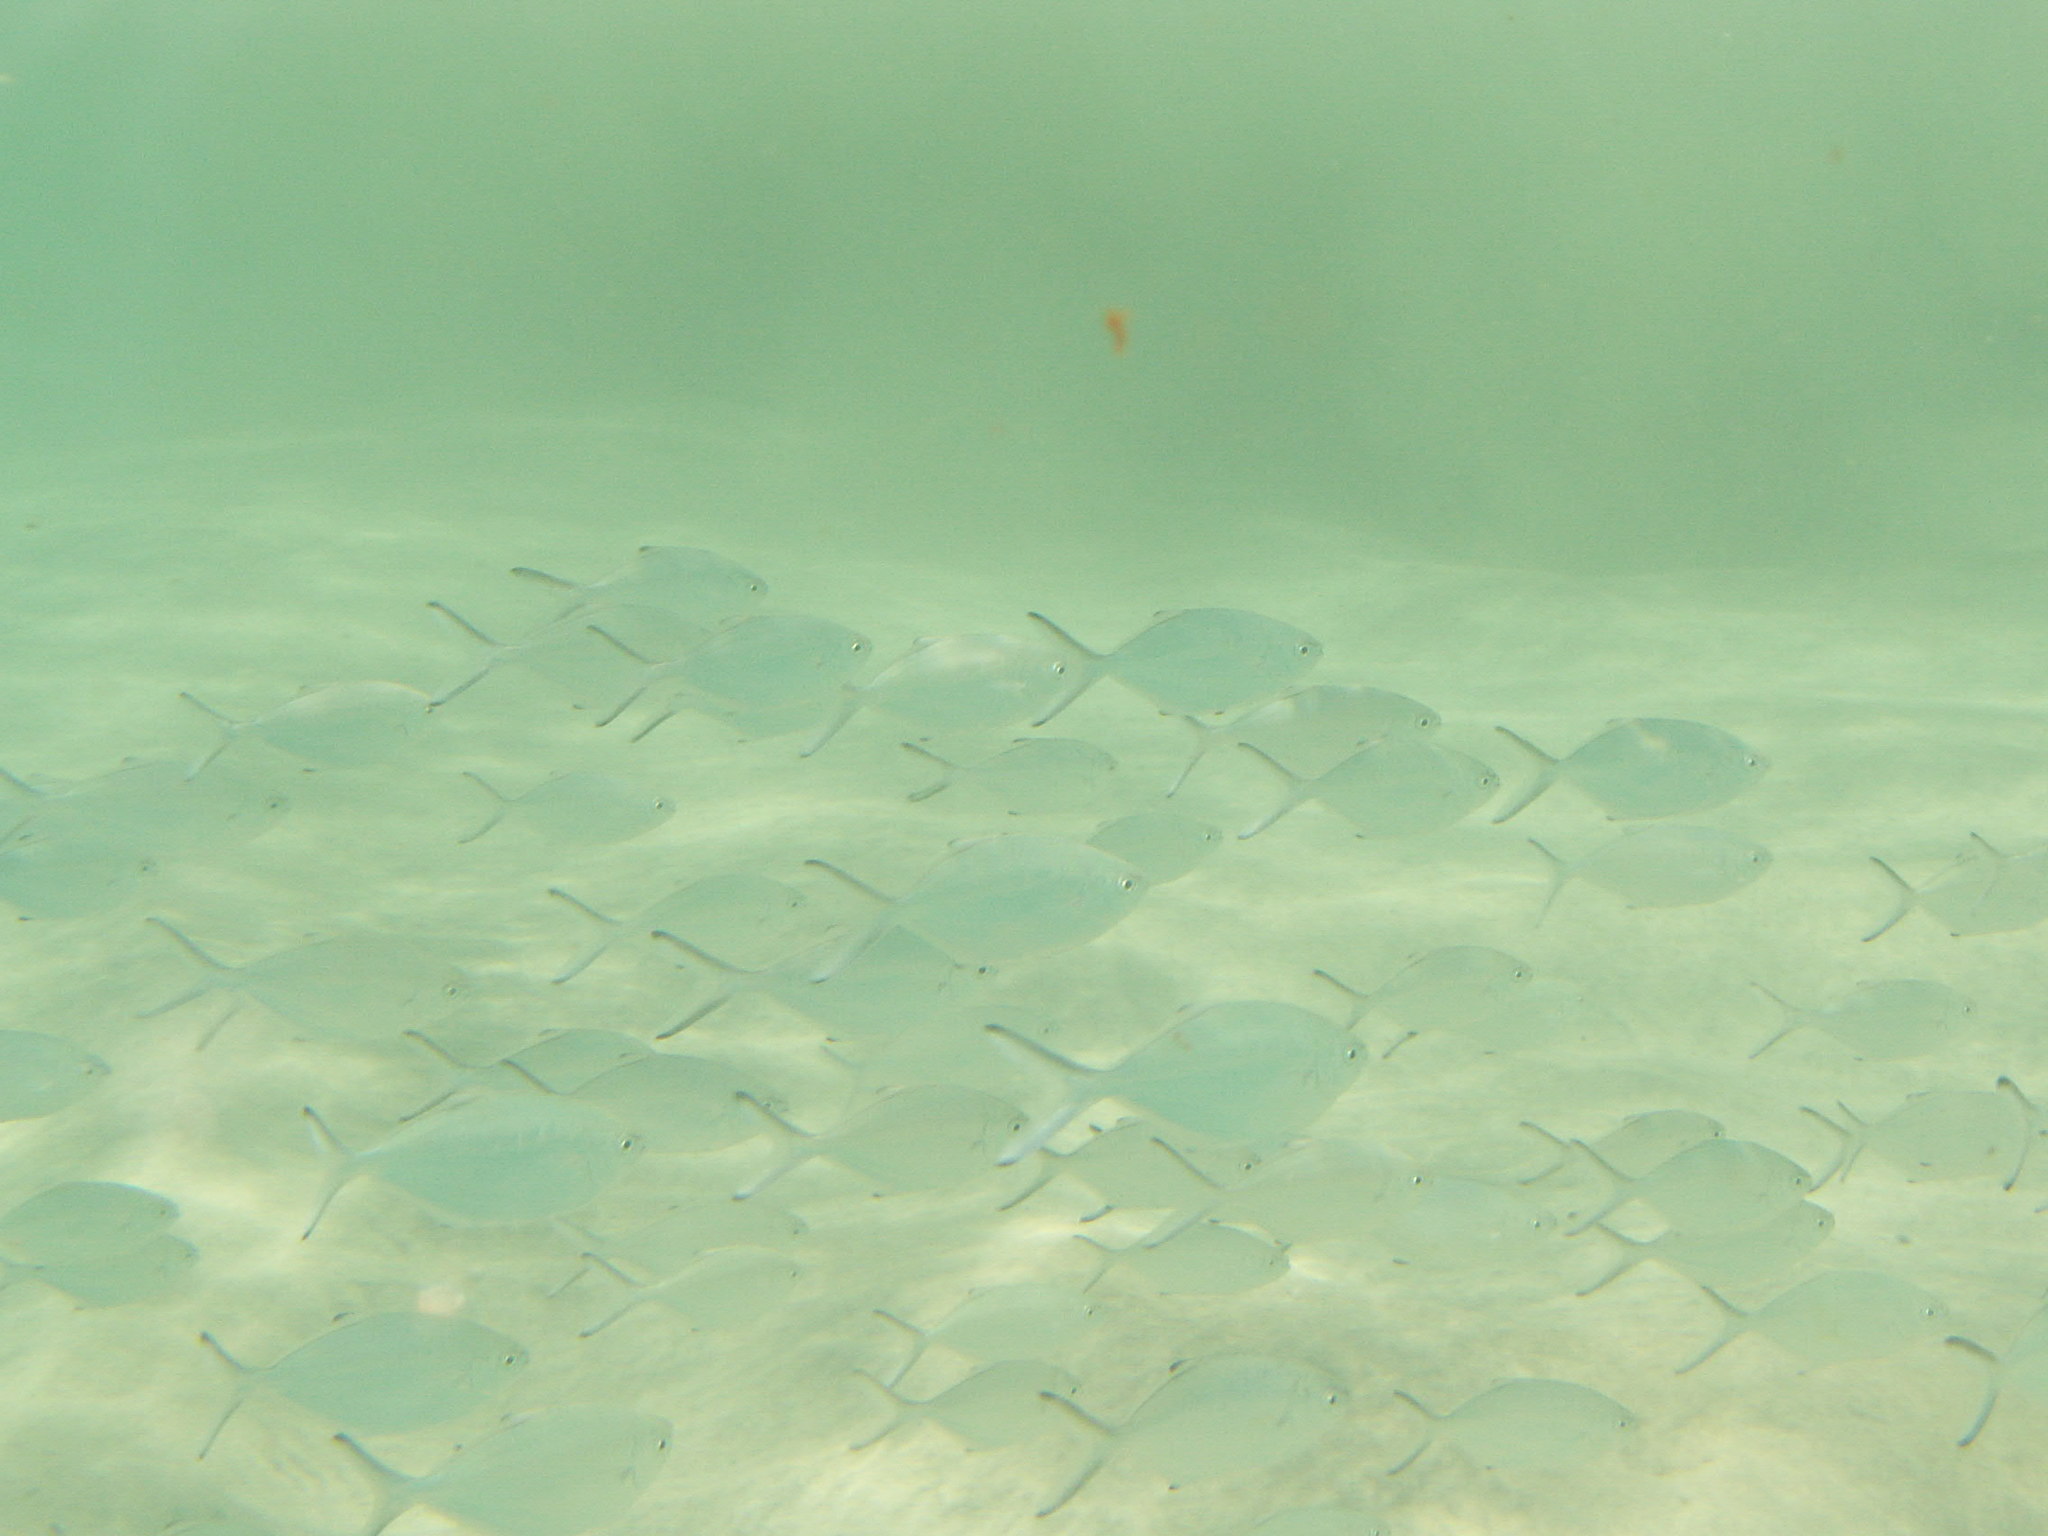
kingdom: Animalia
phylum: Chordata
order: Perciformes
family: Carangidae
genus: Trachinotus
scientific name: Trachinotus ovatus
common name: Pompano
